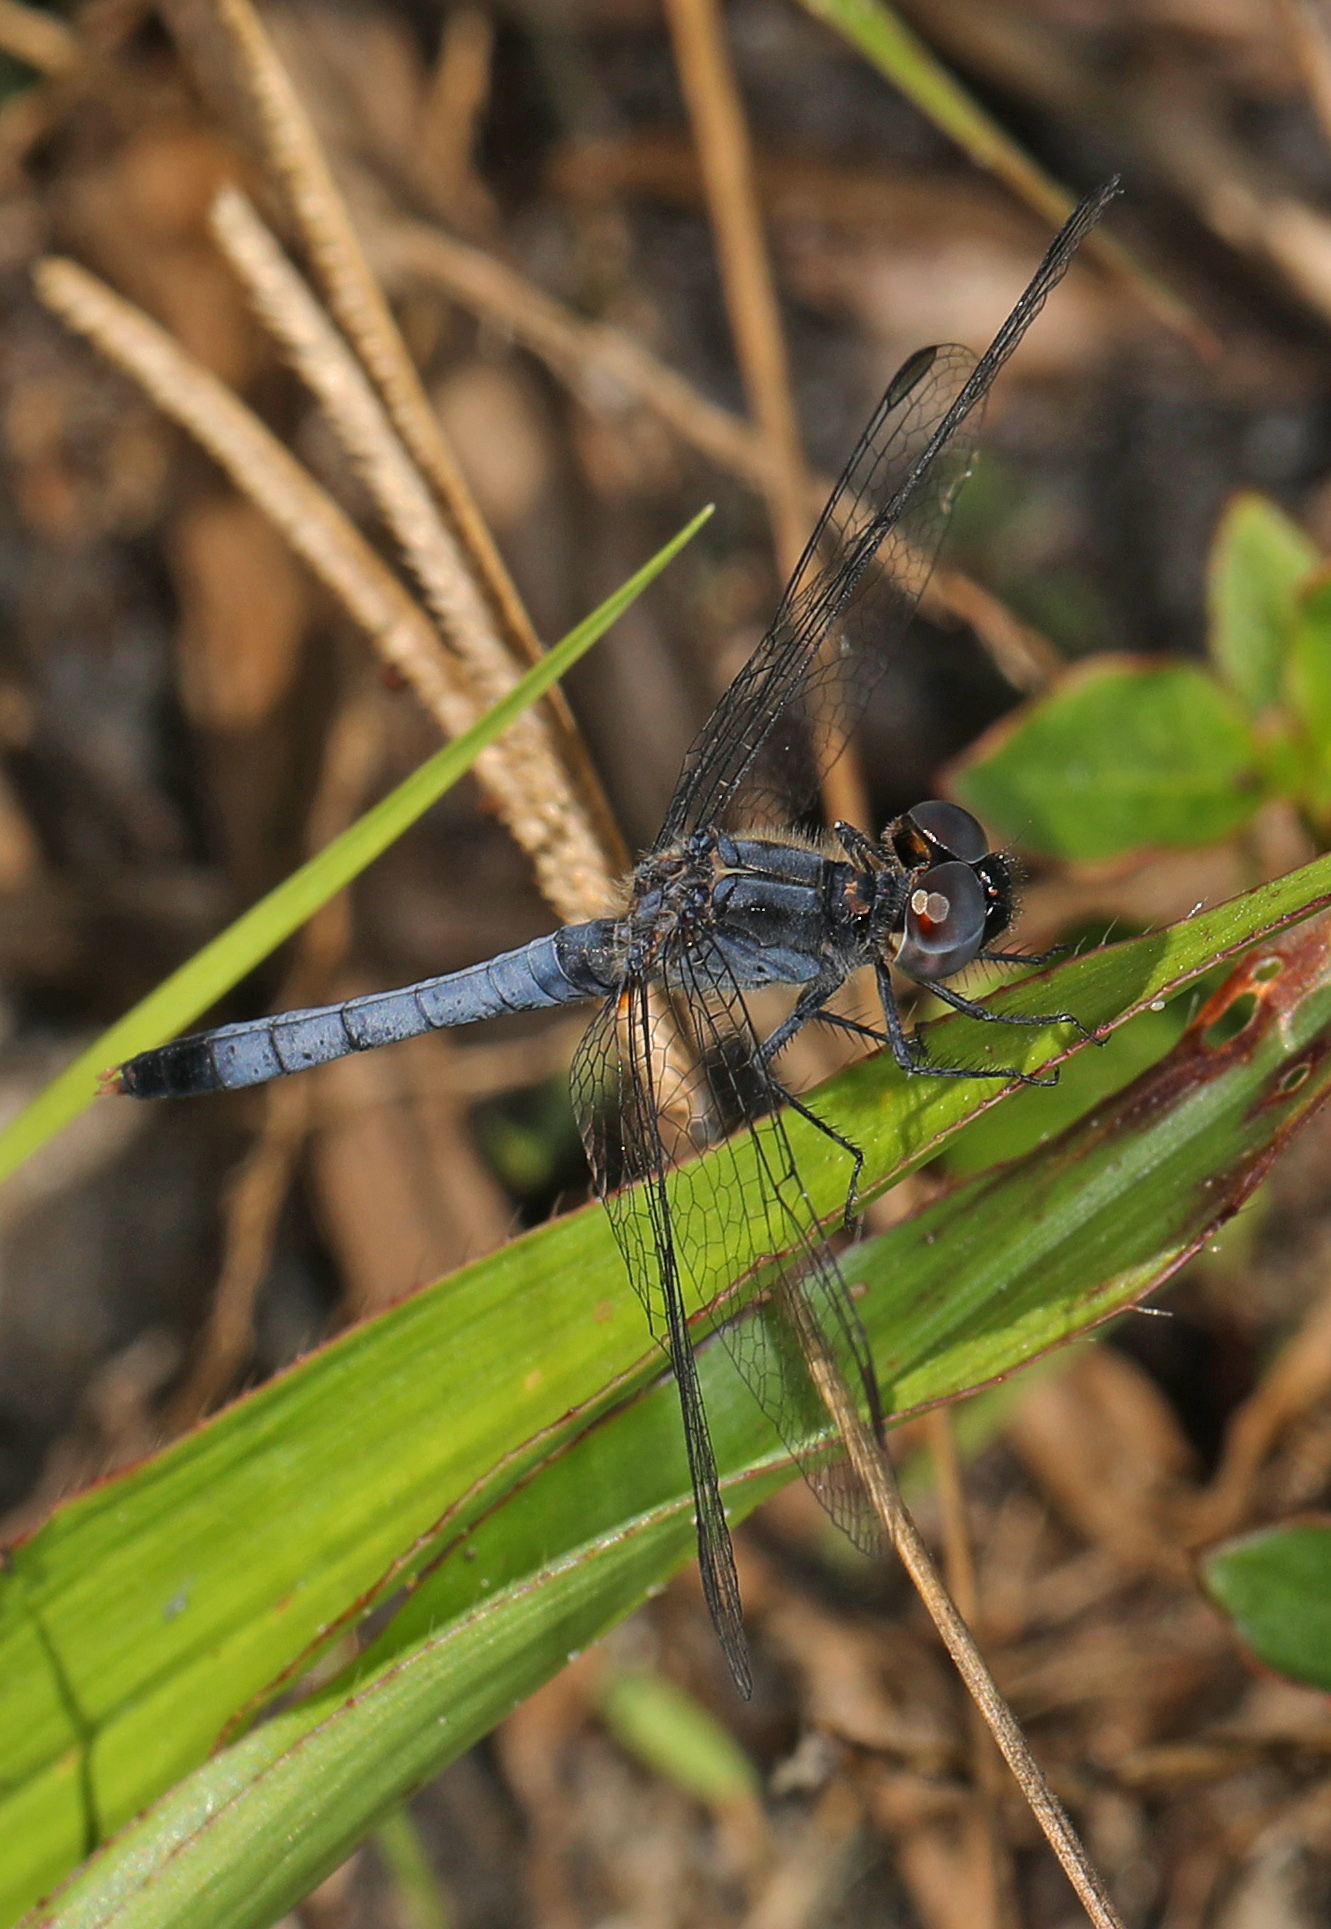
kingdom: Animalia
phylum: Arthropoda
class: Insecta
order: Odonata
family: Libellulidae
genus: Erythrodiplax
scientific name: Erythrodiplax minuscula
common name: Little blue dragonlet
